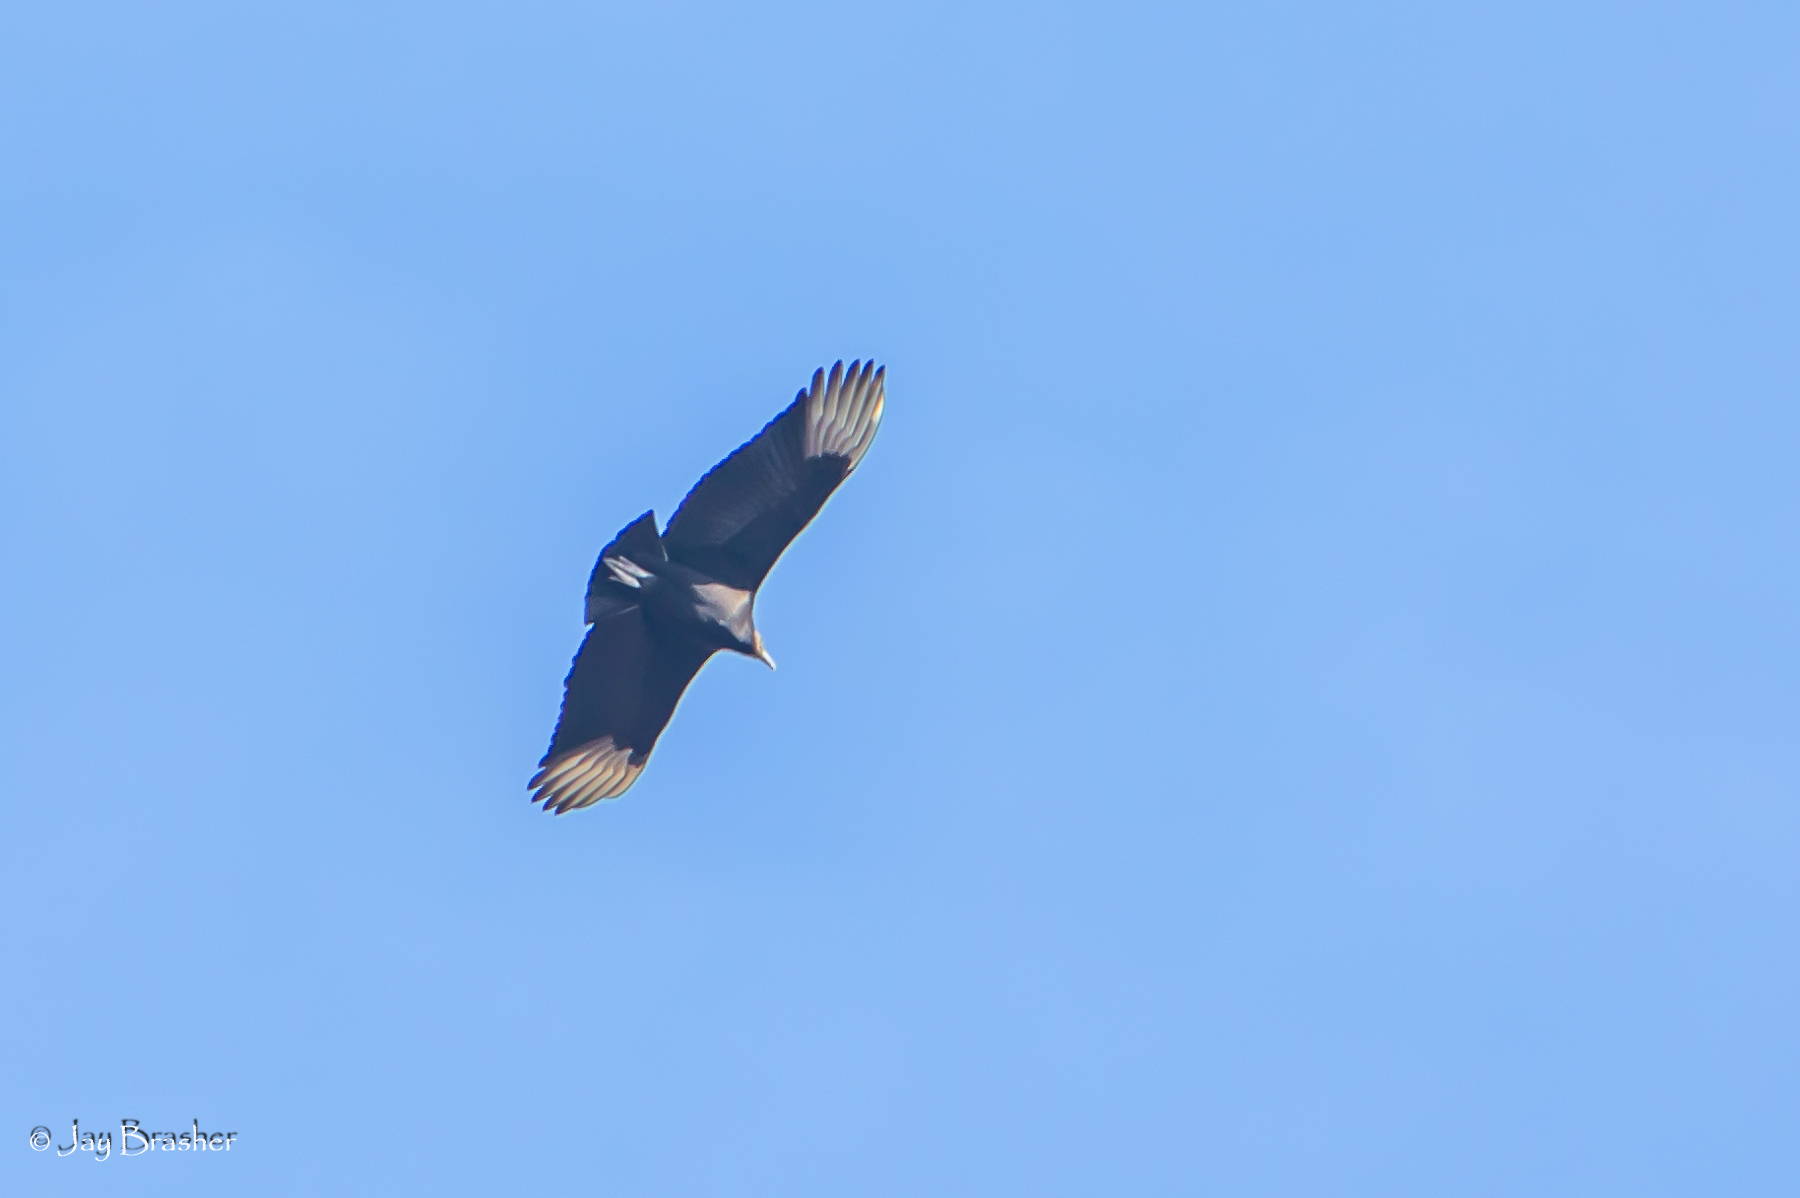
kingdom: Animalia
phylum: Chordata
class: Aves
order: Accipitriformes
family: Cathartidae
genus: Coragyps
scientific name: Coragyps atratus
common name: Black vulture
